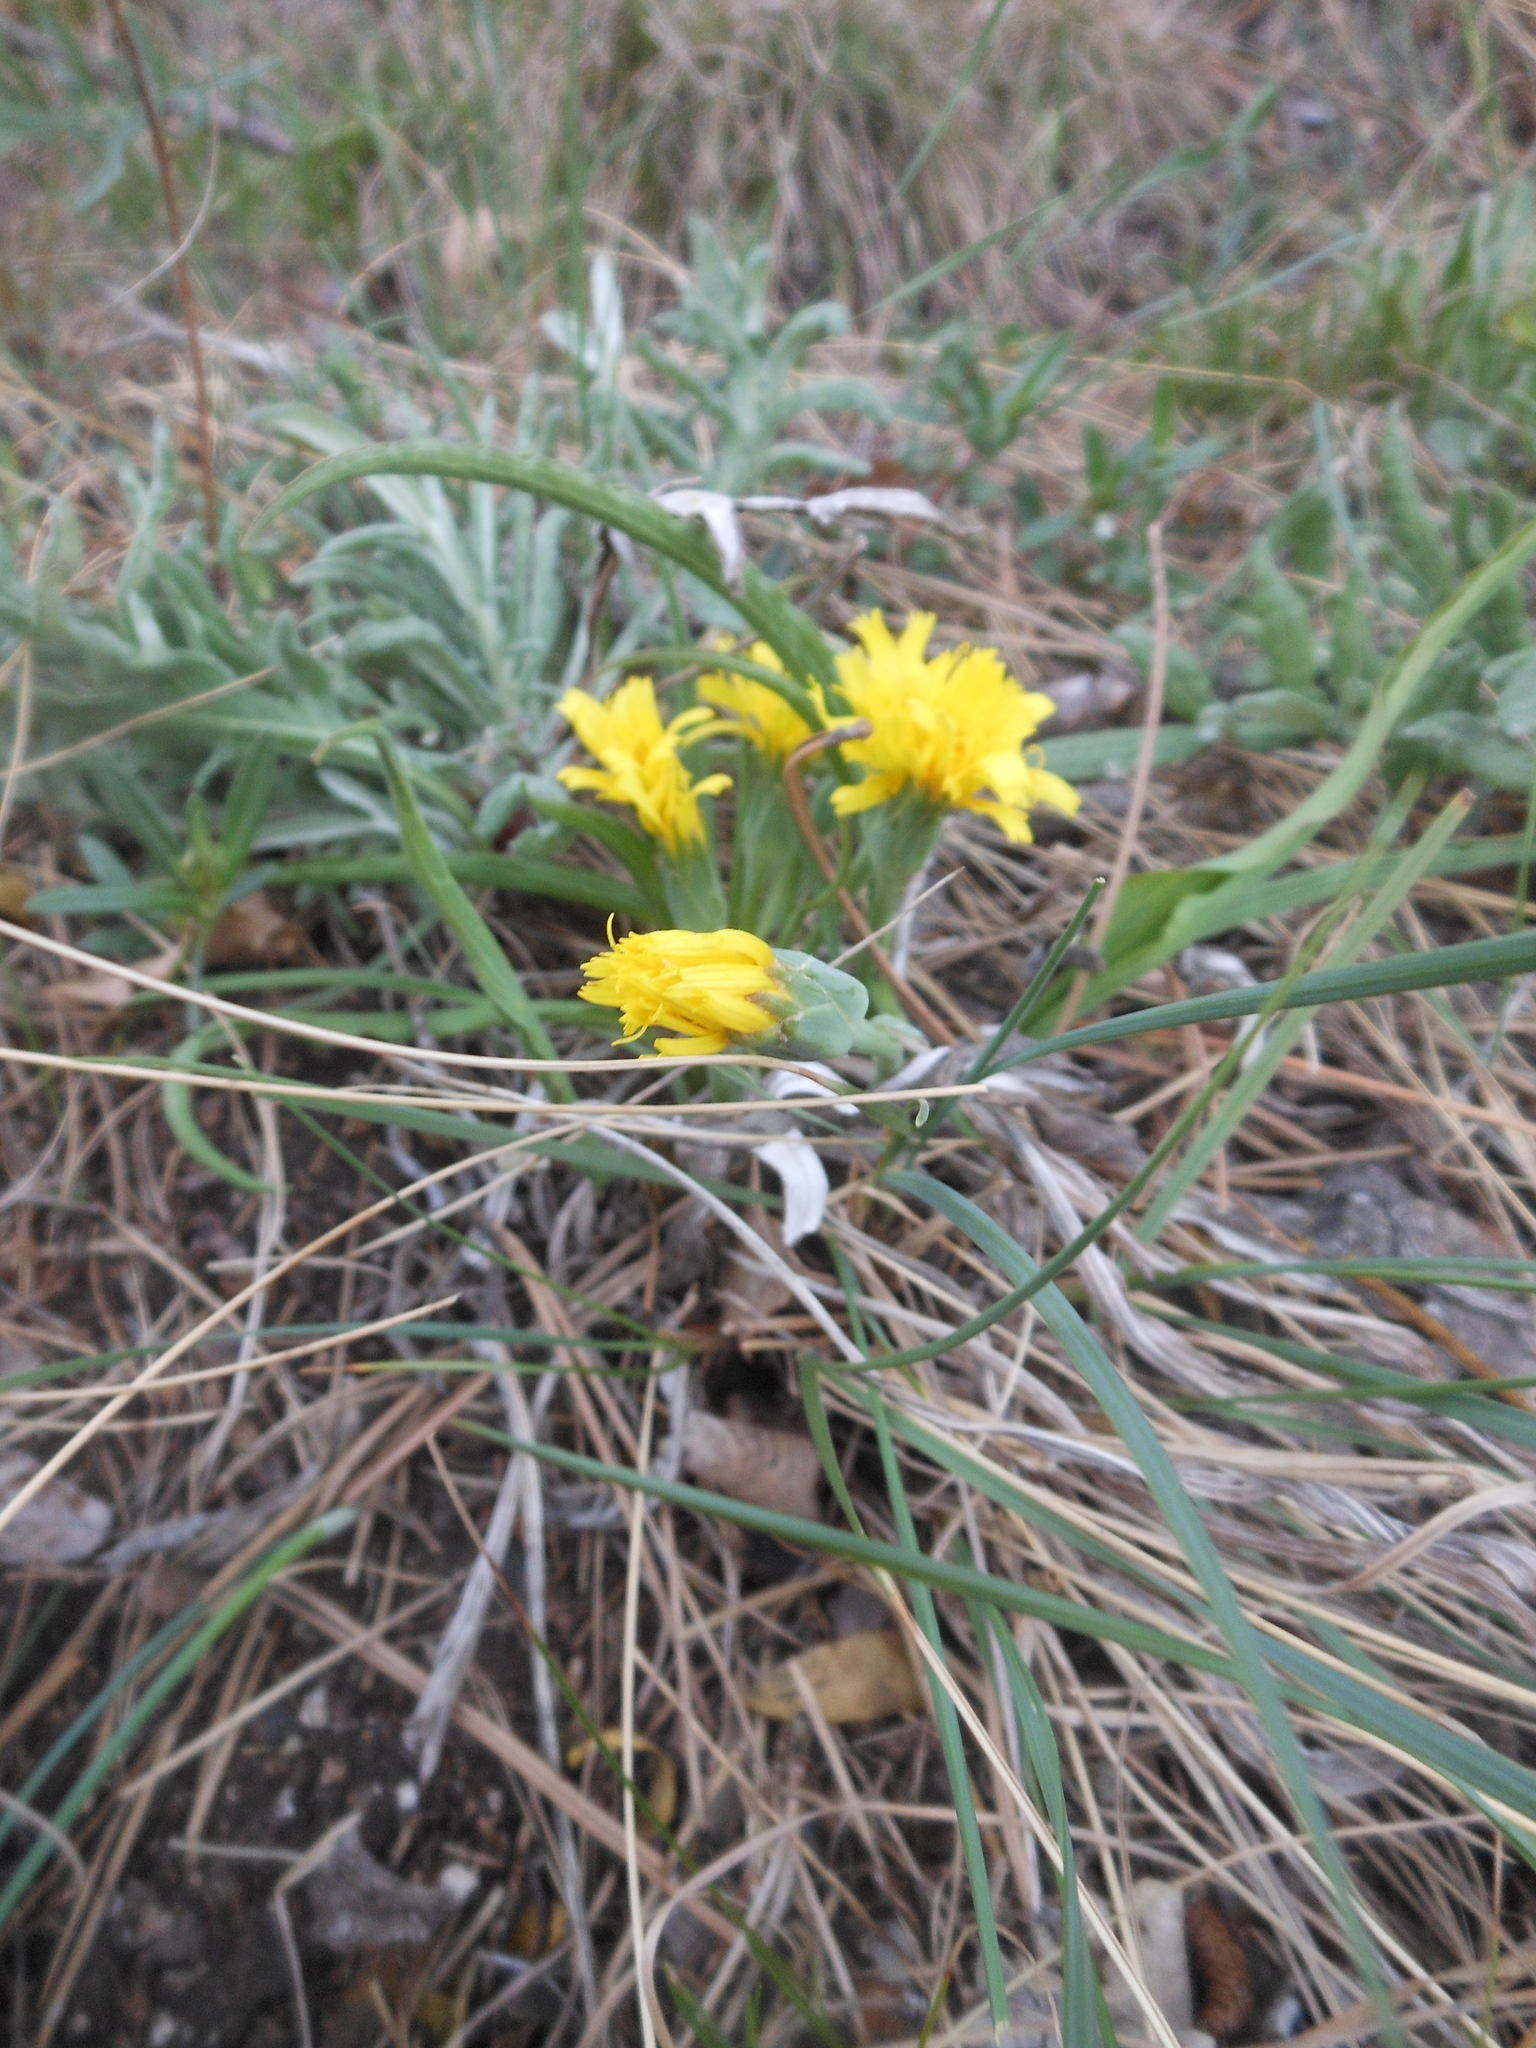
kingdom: Plantae
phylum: Tracheophyta
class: Magnoliopsida
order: Asterales
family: Asteraceae
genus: Takhtajaniantha
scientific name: Takhtajaniantha austriaca
